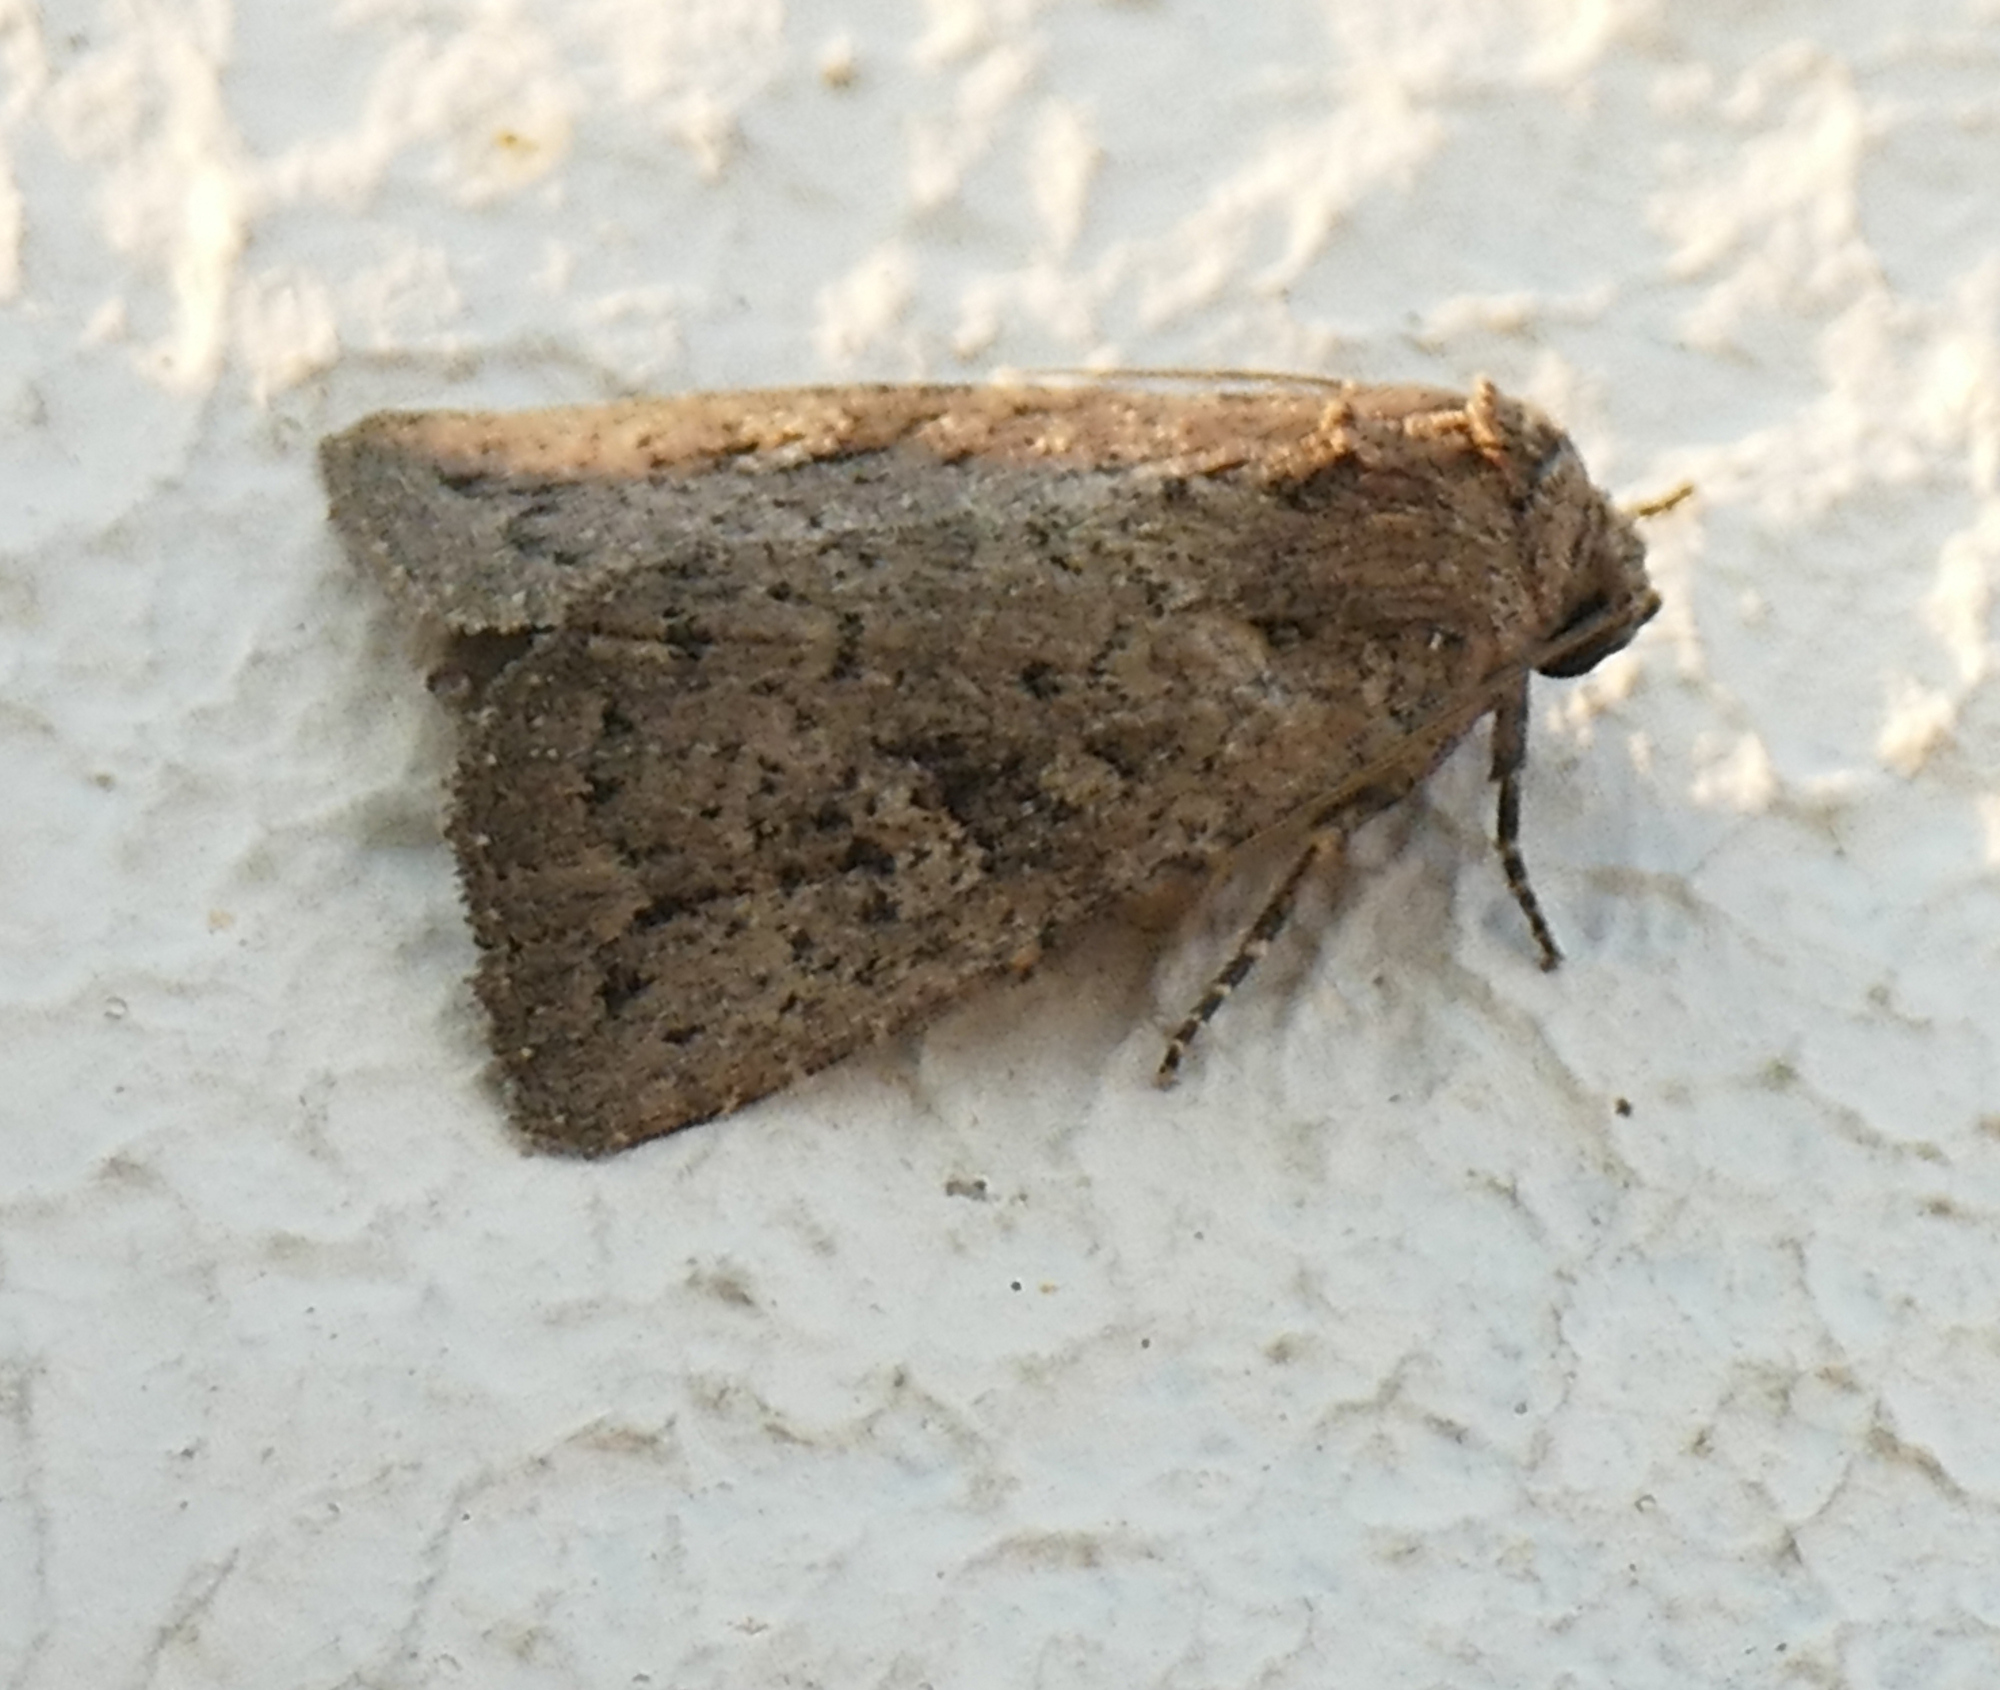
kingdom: Animalia
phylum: Arthropoda
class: Insecta
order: Lepidoptera
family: Noctuidae
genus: Condica
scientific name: Condica sutor
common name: Cobbler moth
